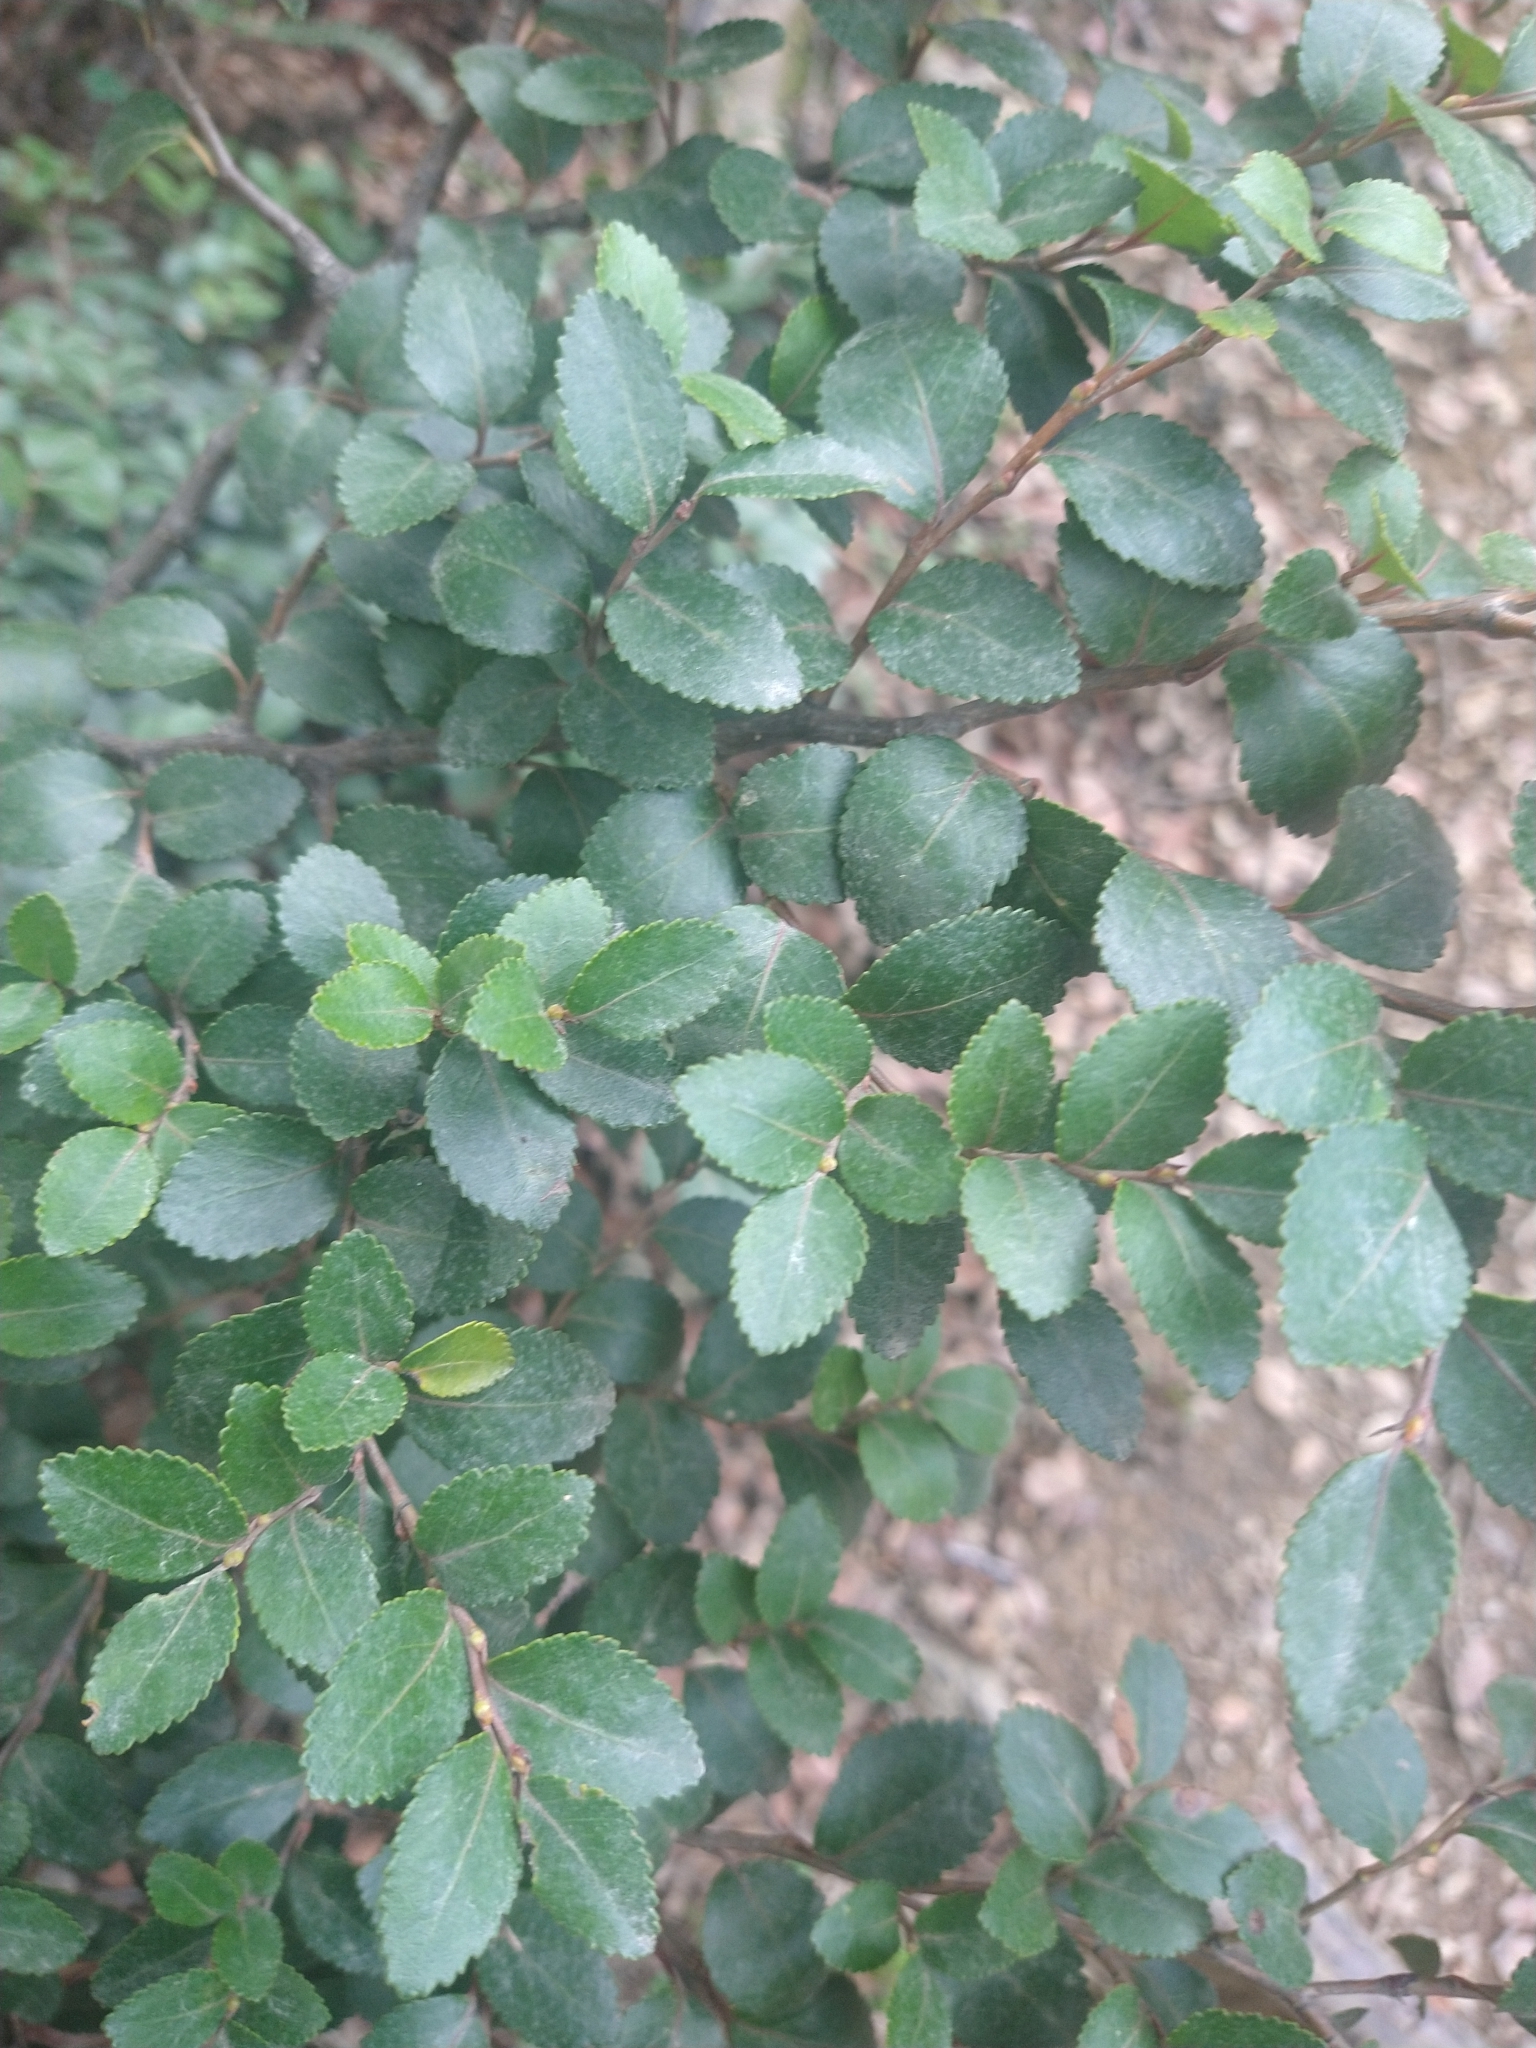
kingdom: Plantae
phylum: Tracheophyta
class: Magnoliopsida
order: Fagales
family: Nothofagaceae
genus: Nothofagus
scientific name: Nothofagus betuloides
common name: Magellan's beech
